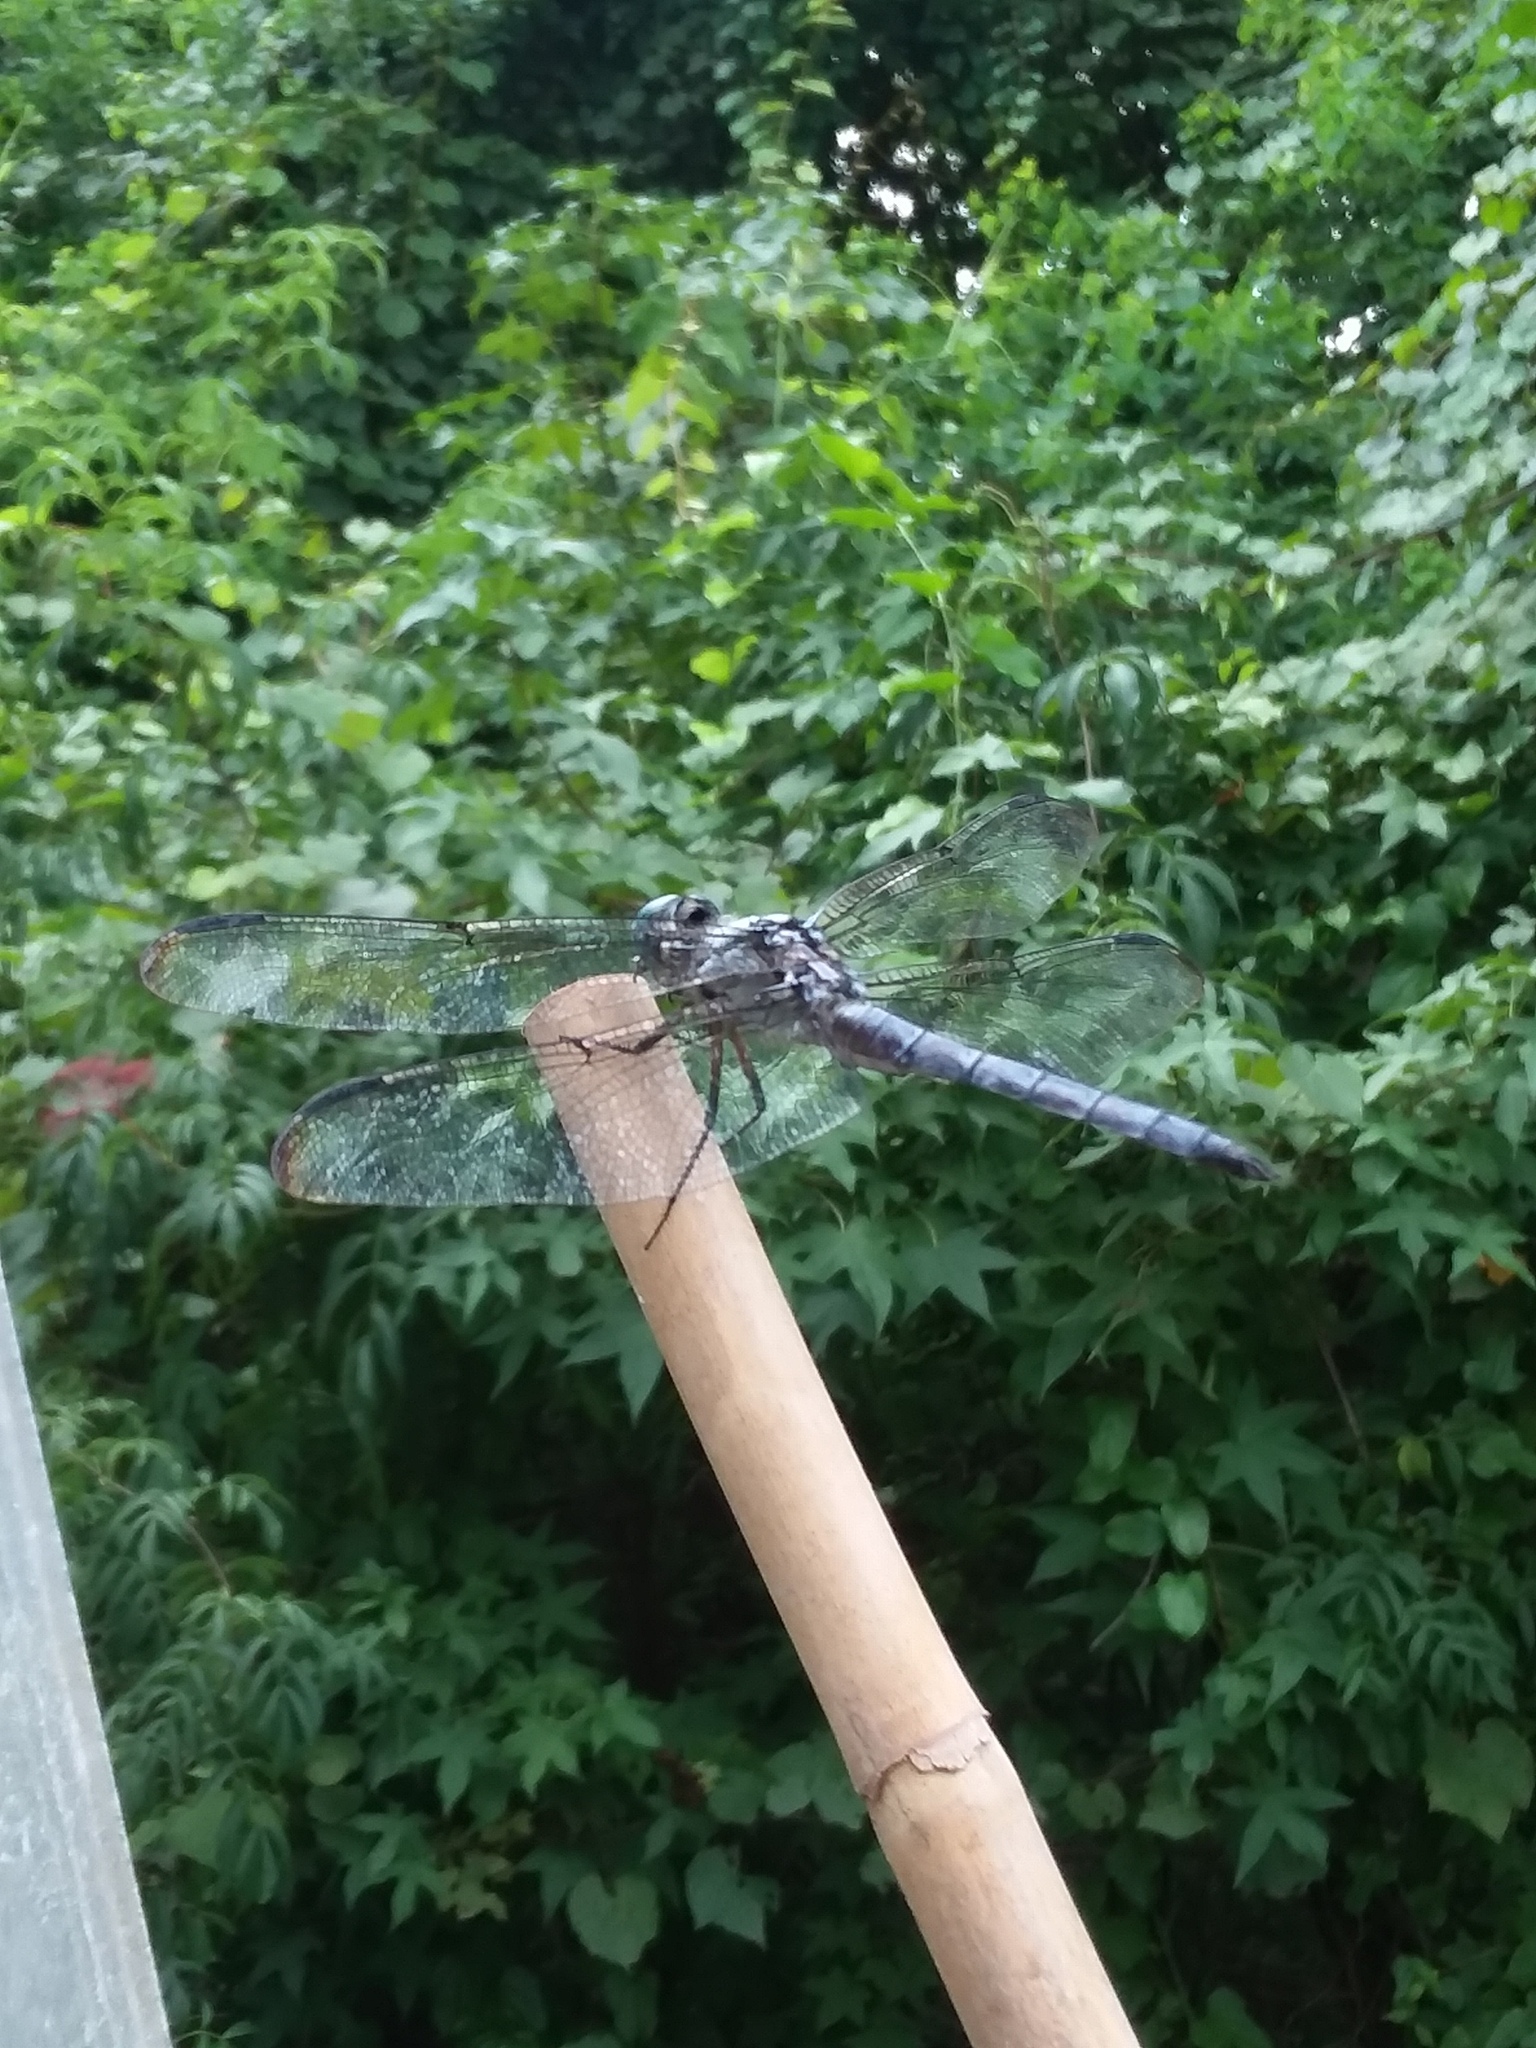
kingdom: Animalia
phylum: Arthropoda
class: Insecta
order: Odonata
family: Libellulidae
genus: Libellula
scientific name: Libellula vibrans
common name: Great blue skimmer
